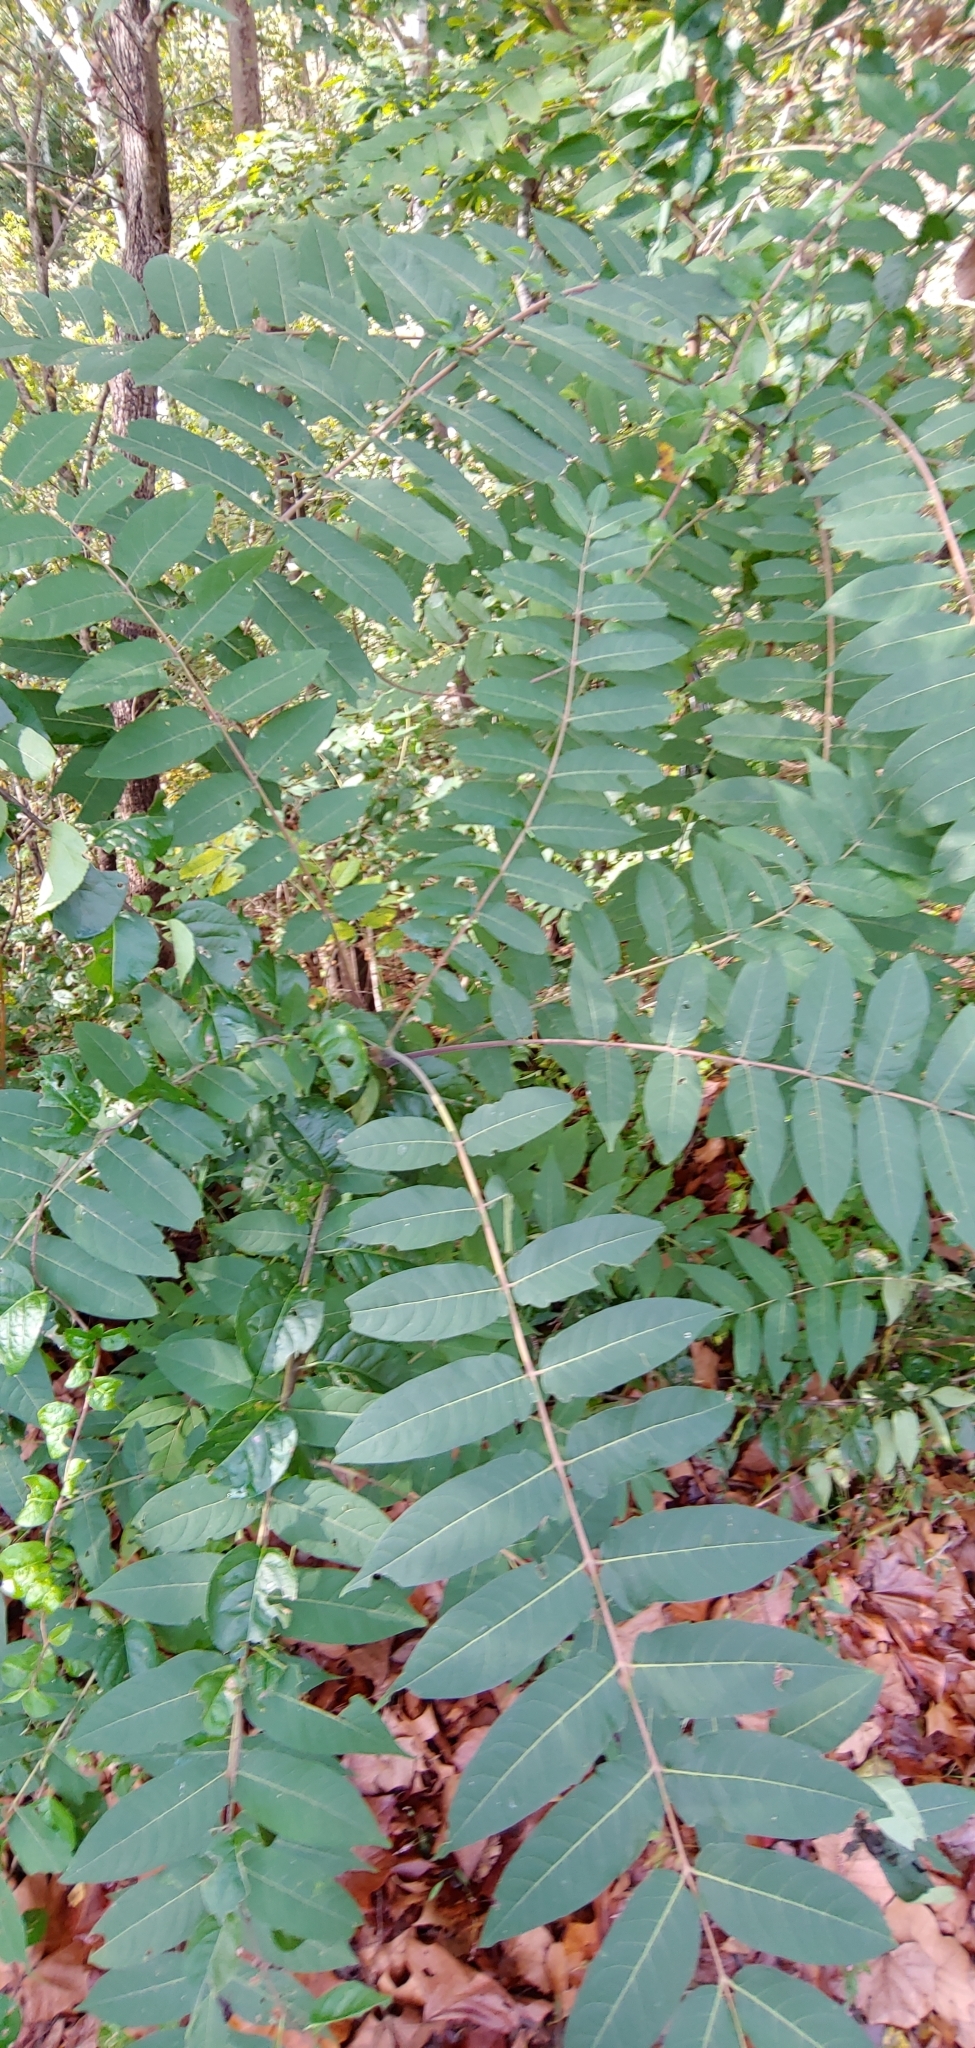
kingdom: Plantae
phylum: Tracheophyta
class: Magnoliopsida
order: Sapindales
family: Simaroubaceae
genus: Ailanthus
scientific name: Ailanthus altissima
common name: Tree-of-heaven
